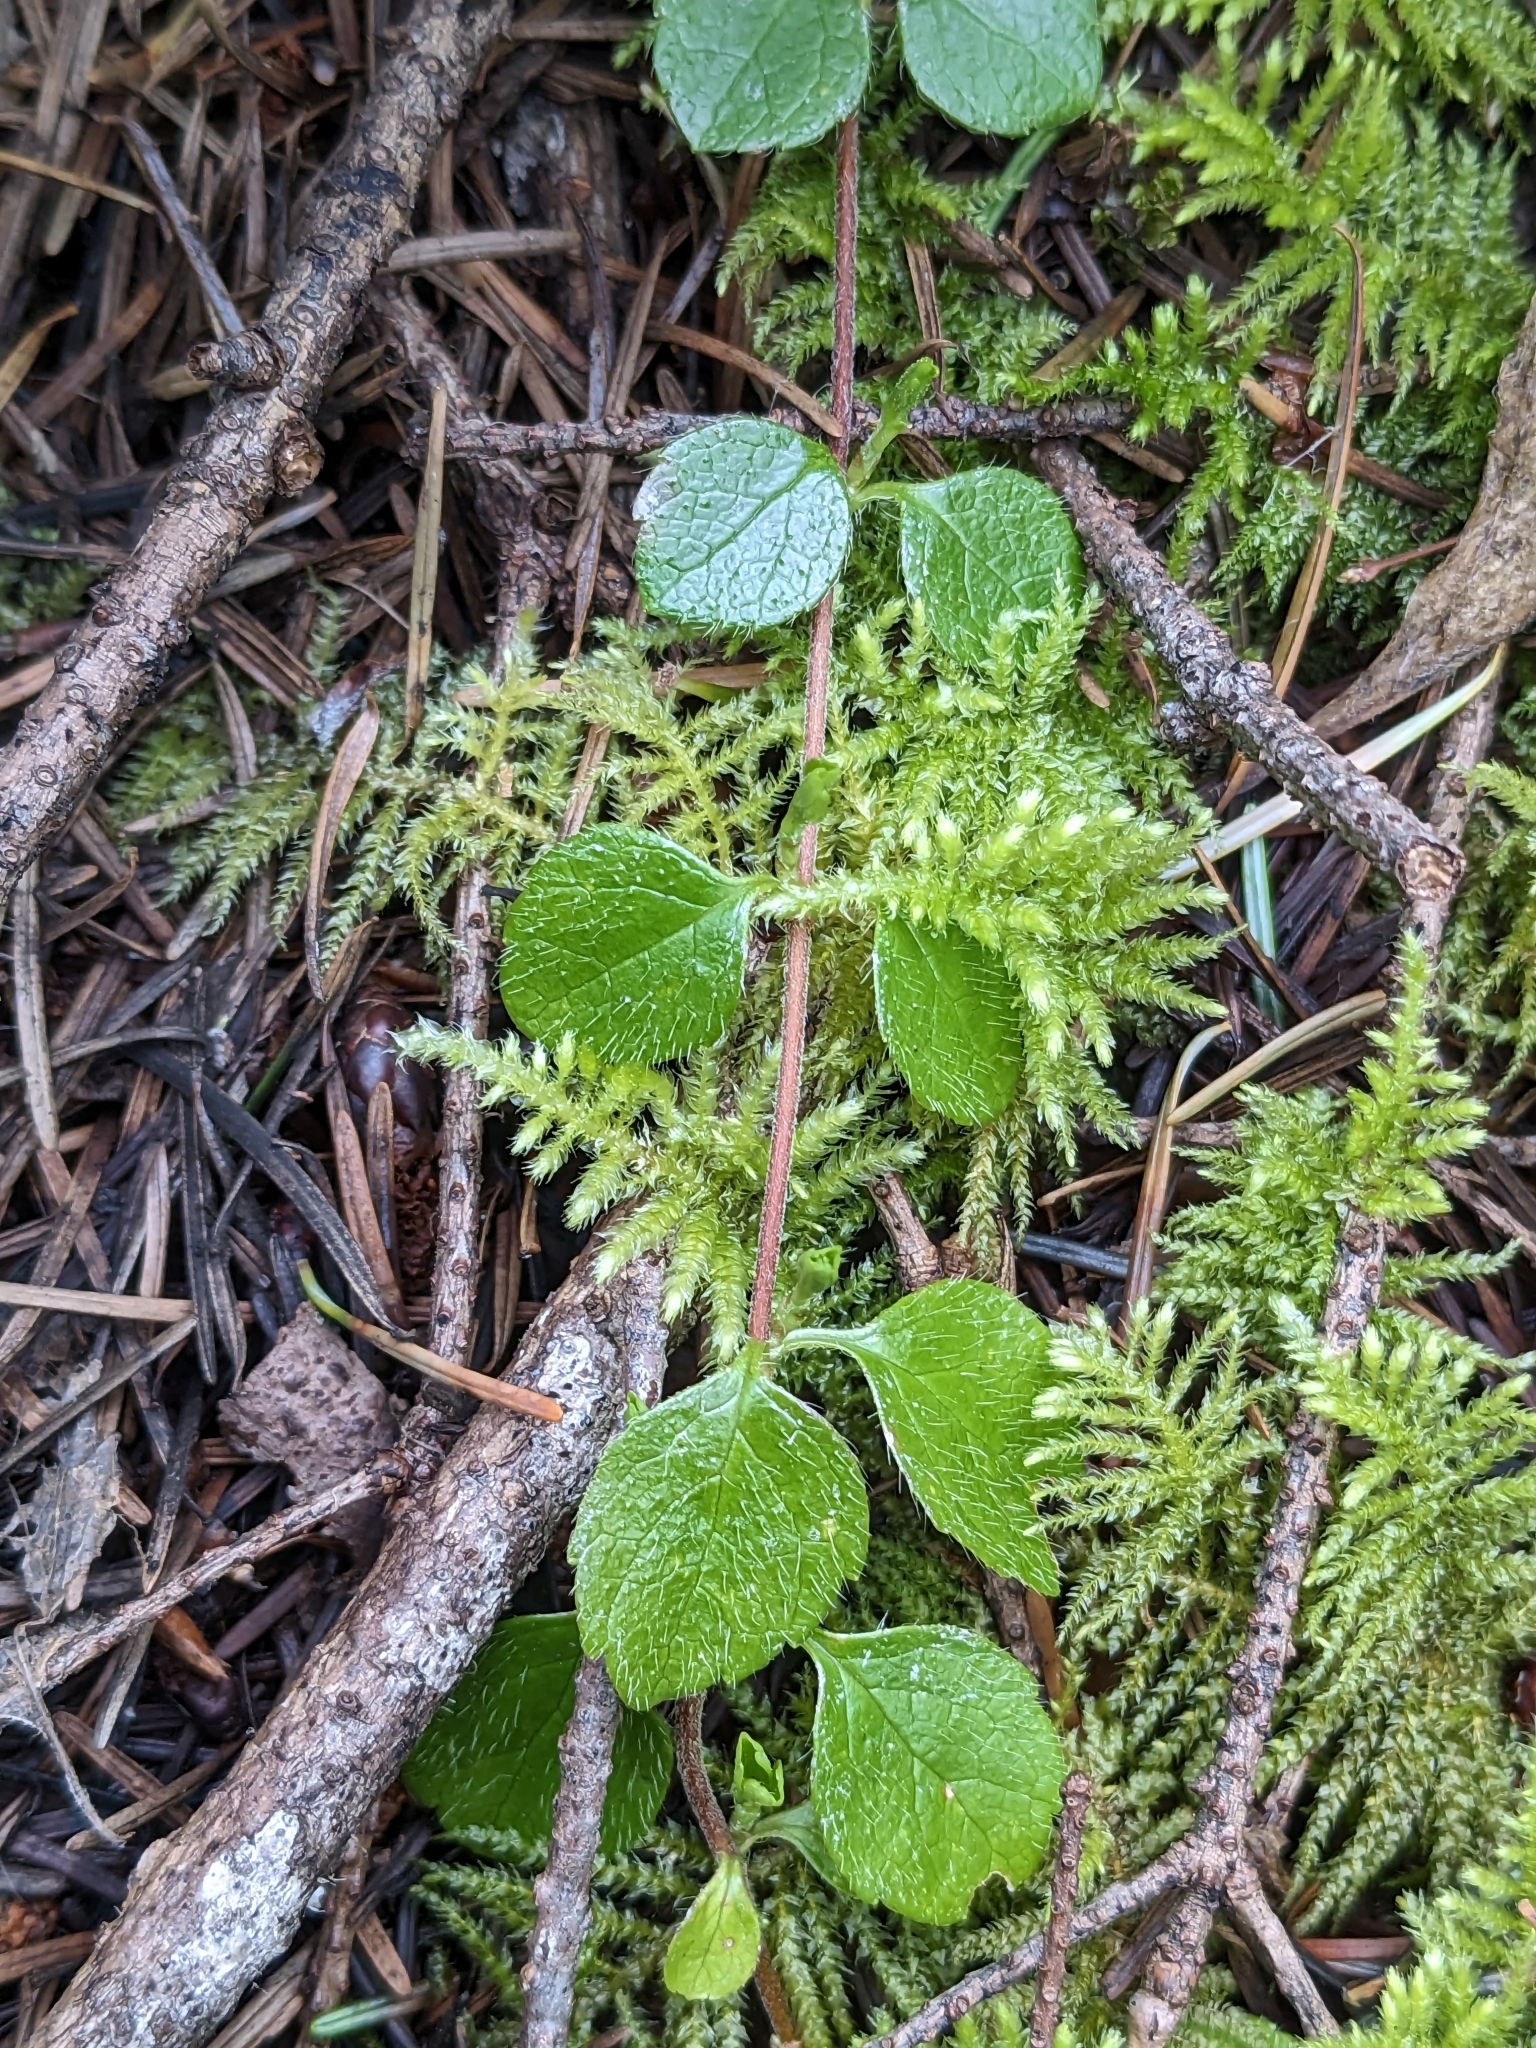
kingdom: Plantae
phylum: Tracheophyta
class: Magnoliopsida
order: Dipsacales
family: Caprifoliaceae
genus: Linnaea
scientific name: Linnaea borealis
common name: Twinflower
